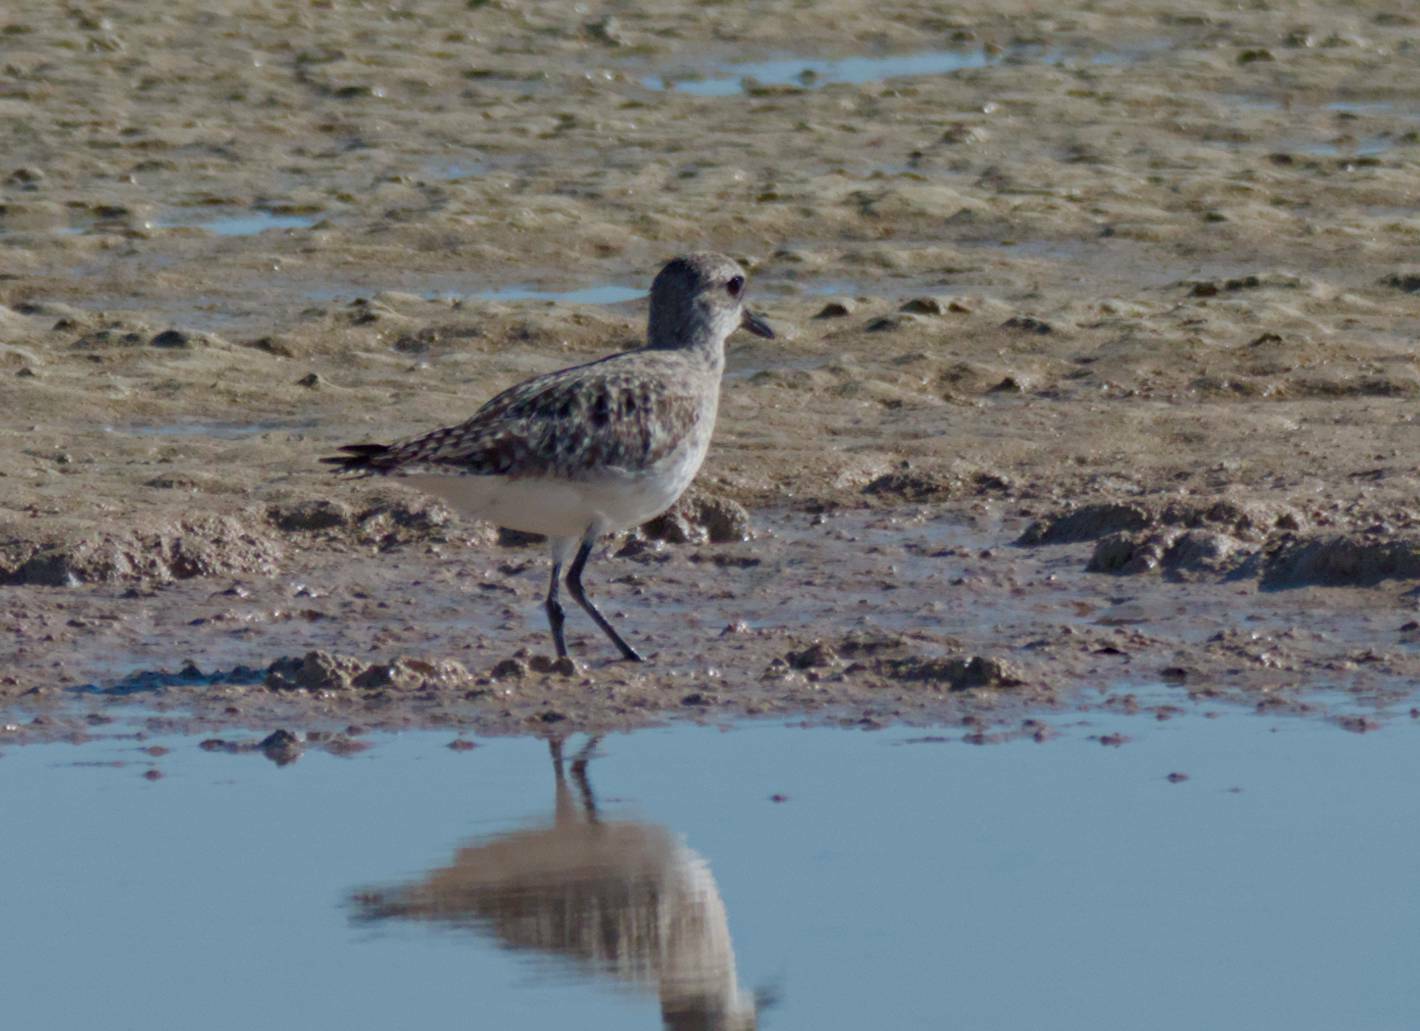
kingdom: Animalia
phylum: Chordata
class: Aves
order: Charadriiformes
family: Charadriidae
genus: Pluvialis
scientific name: Pluvialis squatarola
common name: Grey plover
